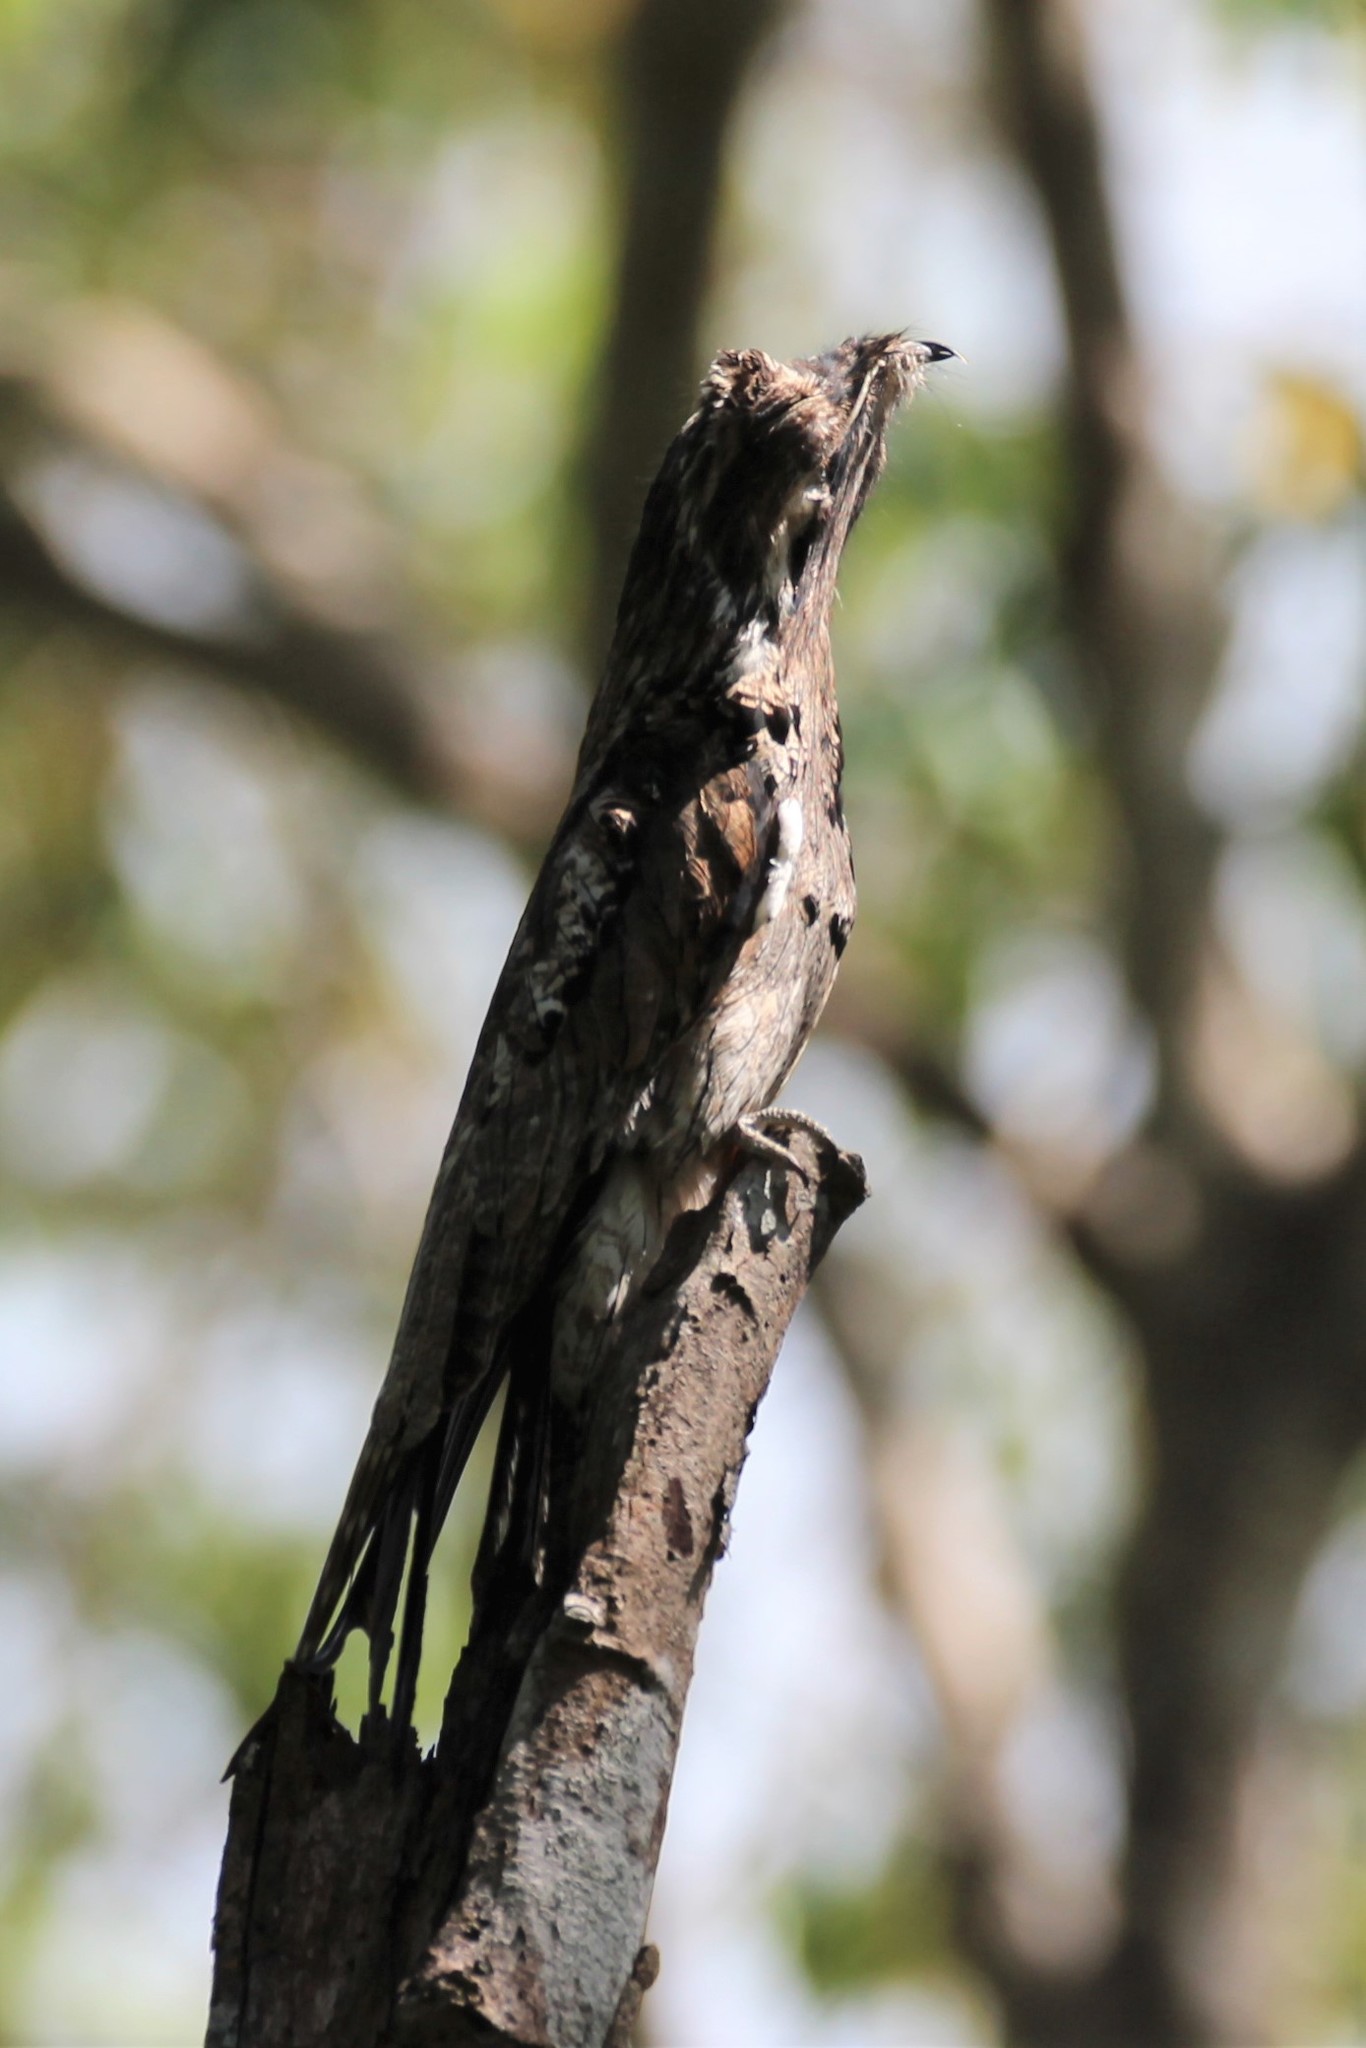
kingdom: Animalia
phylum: Chordata
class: Aves
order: Nyctibiiformes
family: Nyctibiidae
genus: Nyctibius
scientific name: Nyctibius griseus
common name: Common potoo
